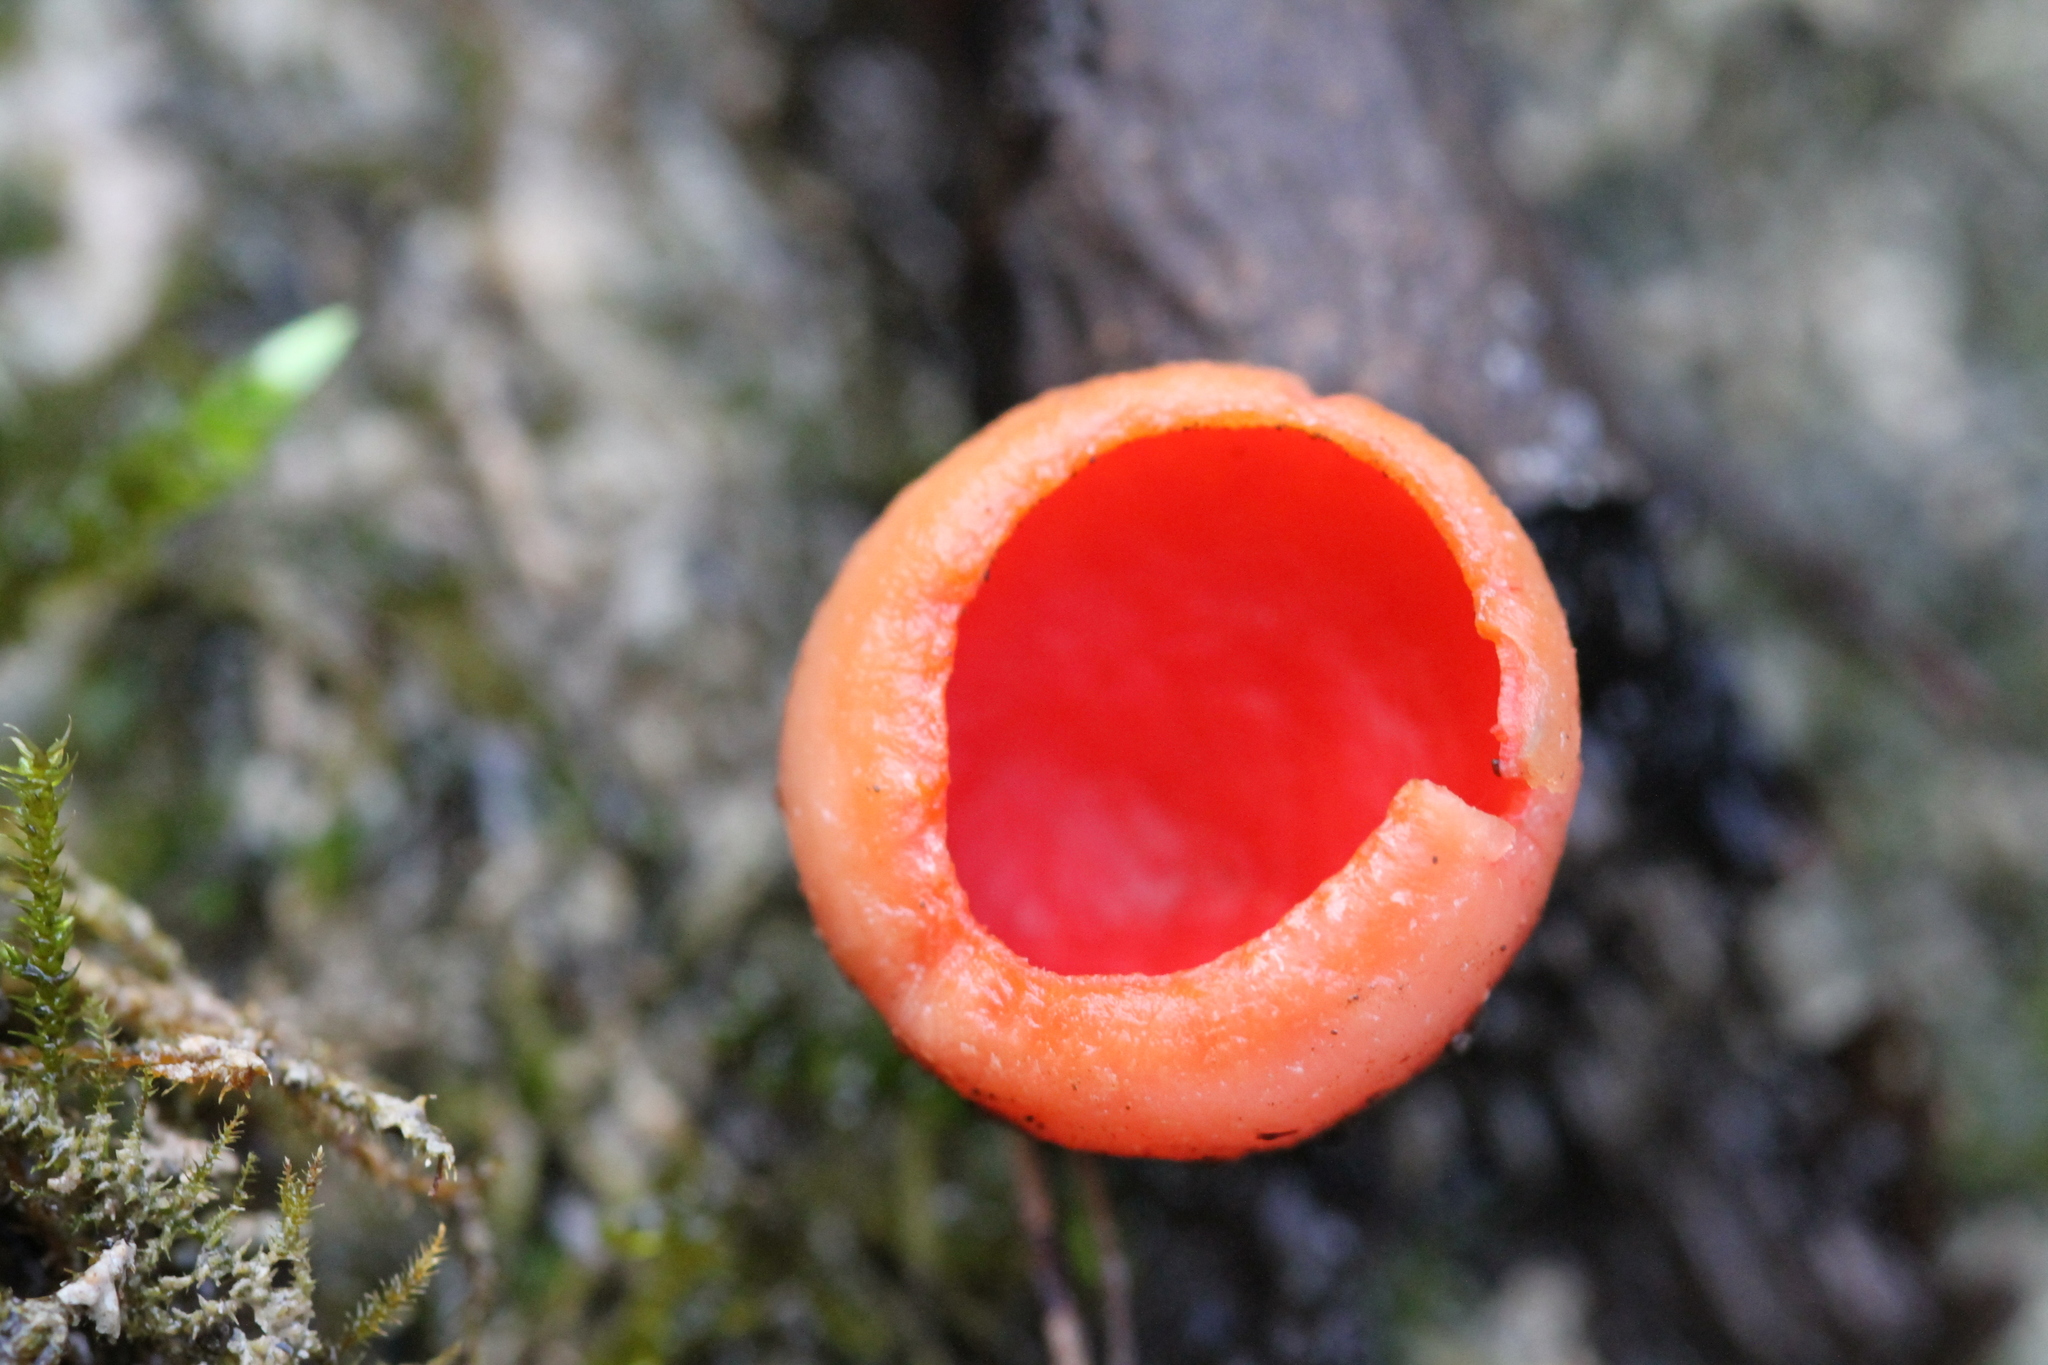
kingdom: Fungi
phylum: Ascomycota
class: Pezizomycetes
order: Pezizales
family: Sarcoscyphaceae
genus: Sarcoscypha
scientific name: Sarcoscypha
